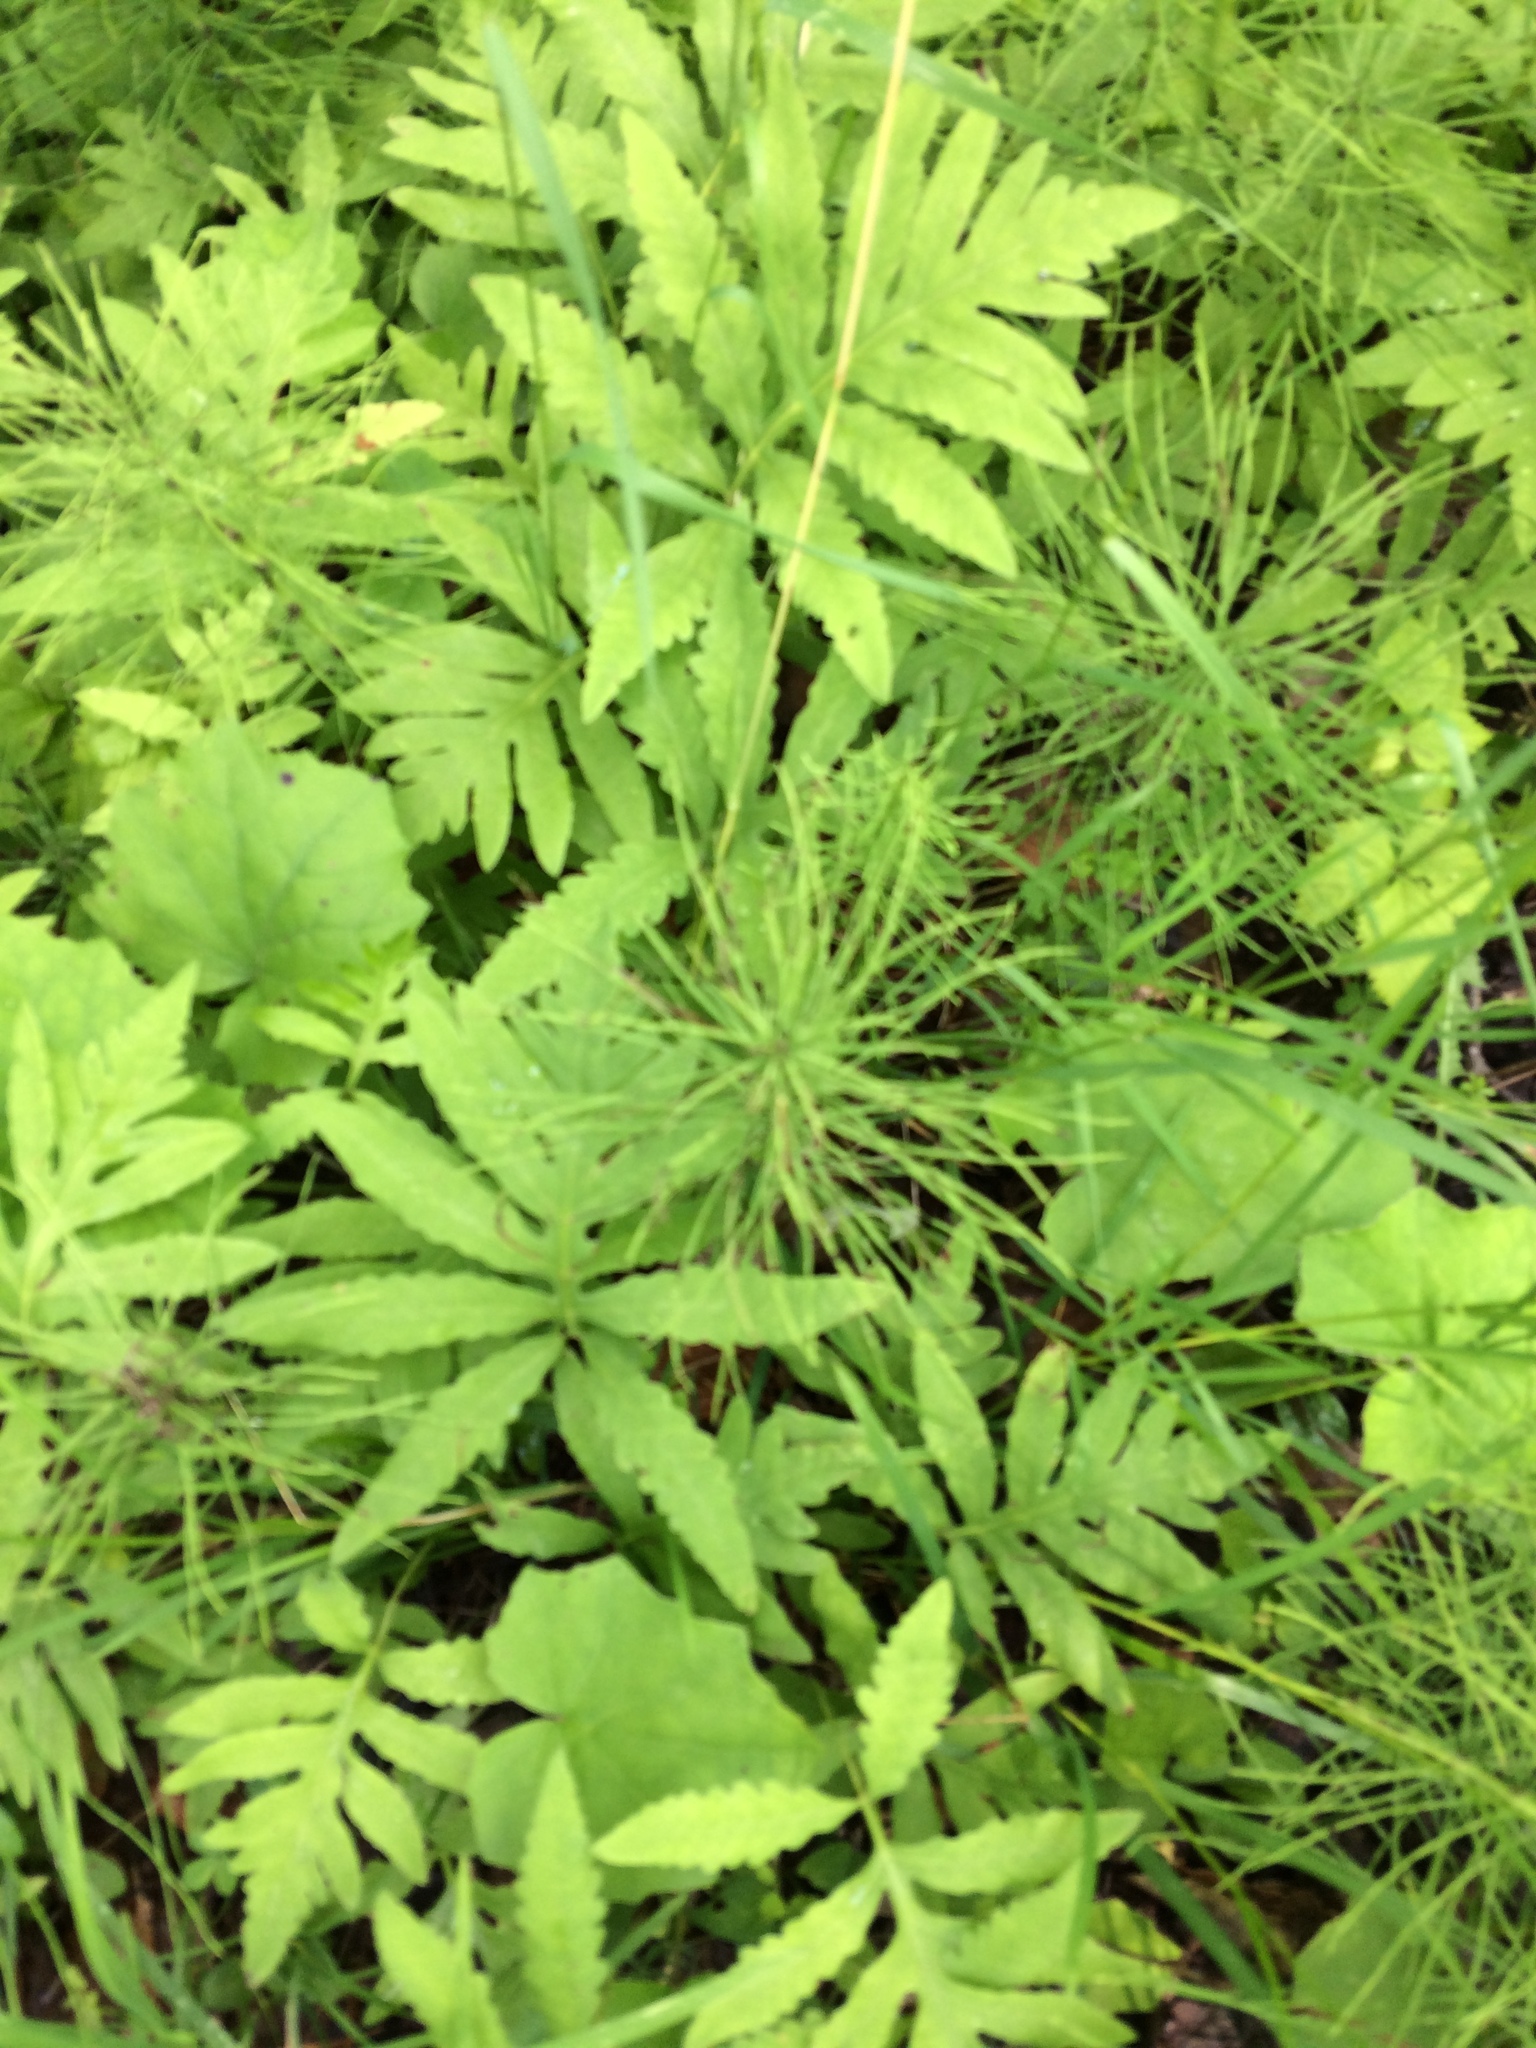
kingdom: Plantae
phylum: Tracheophyta
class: Polypodiopsida
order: Equisetales
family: Equisetaceae
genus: Equisetum
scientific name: Equisetum arvense
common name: Field horsetail
